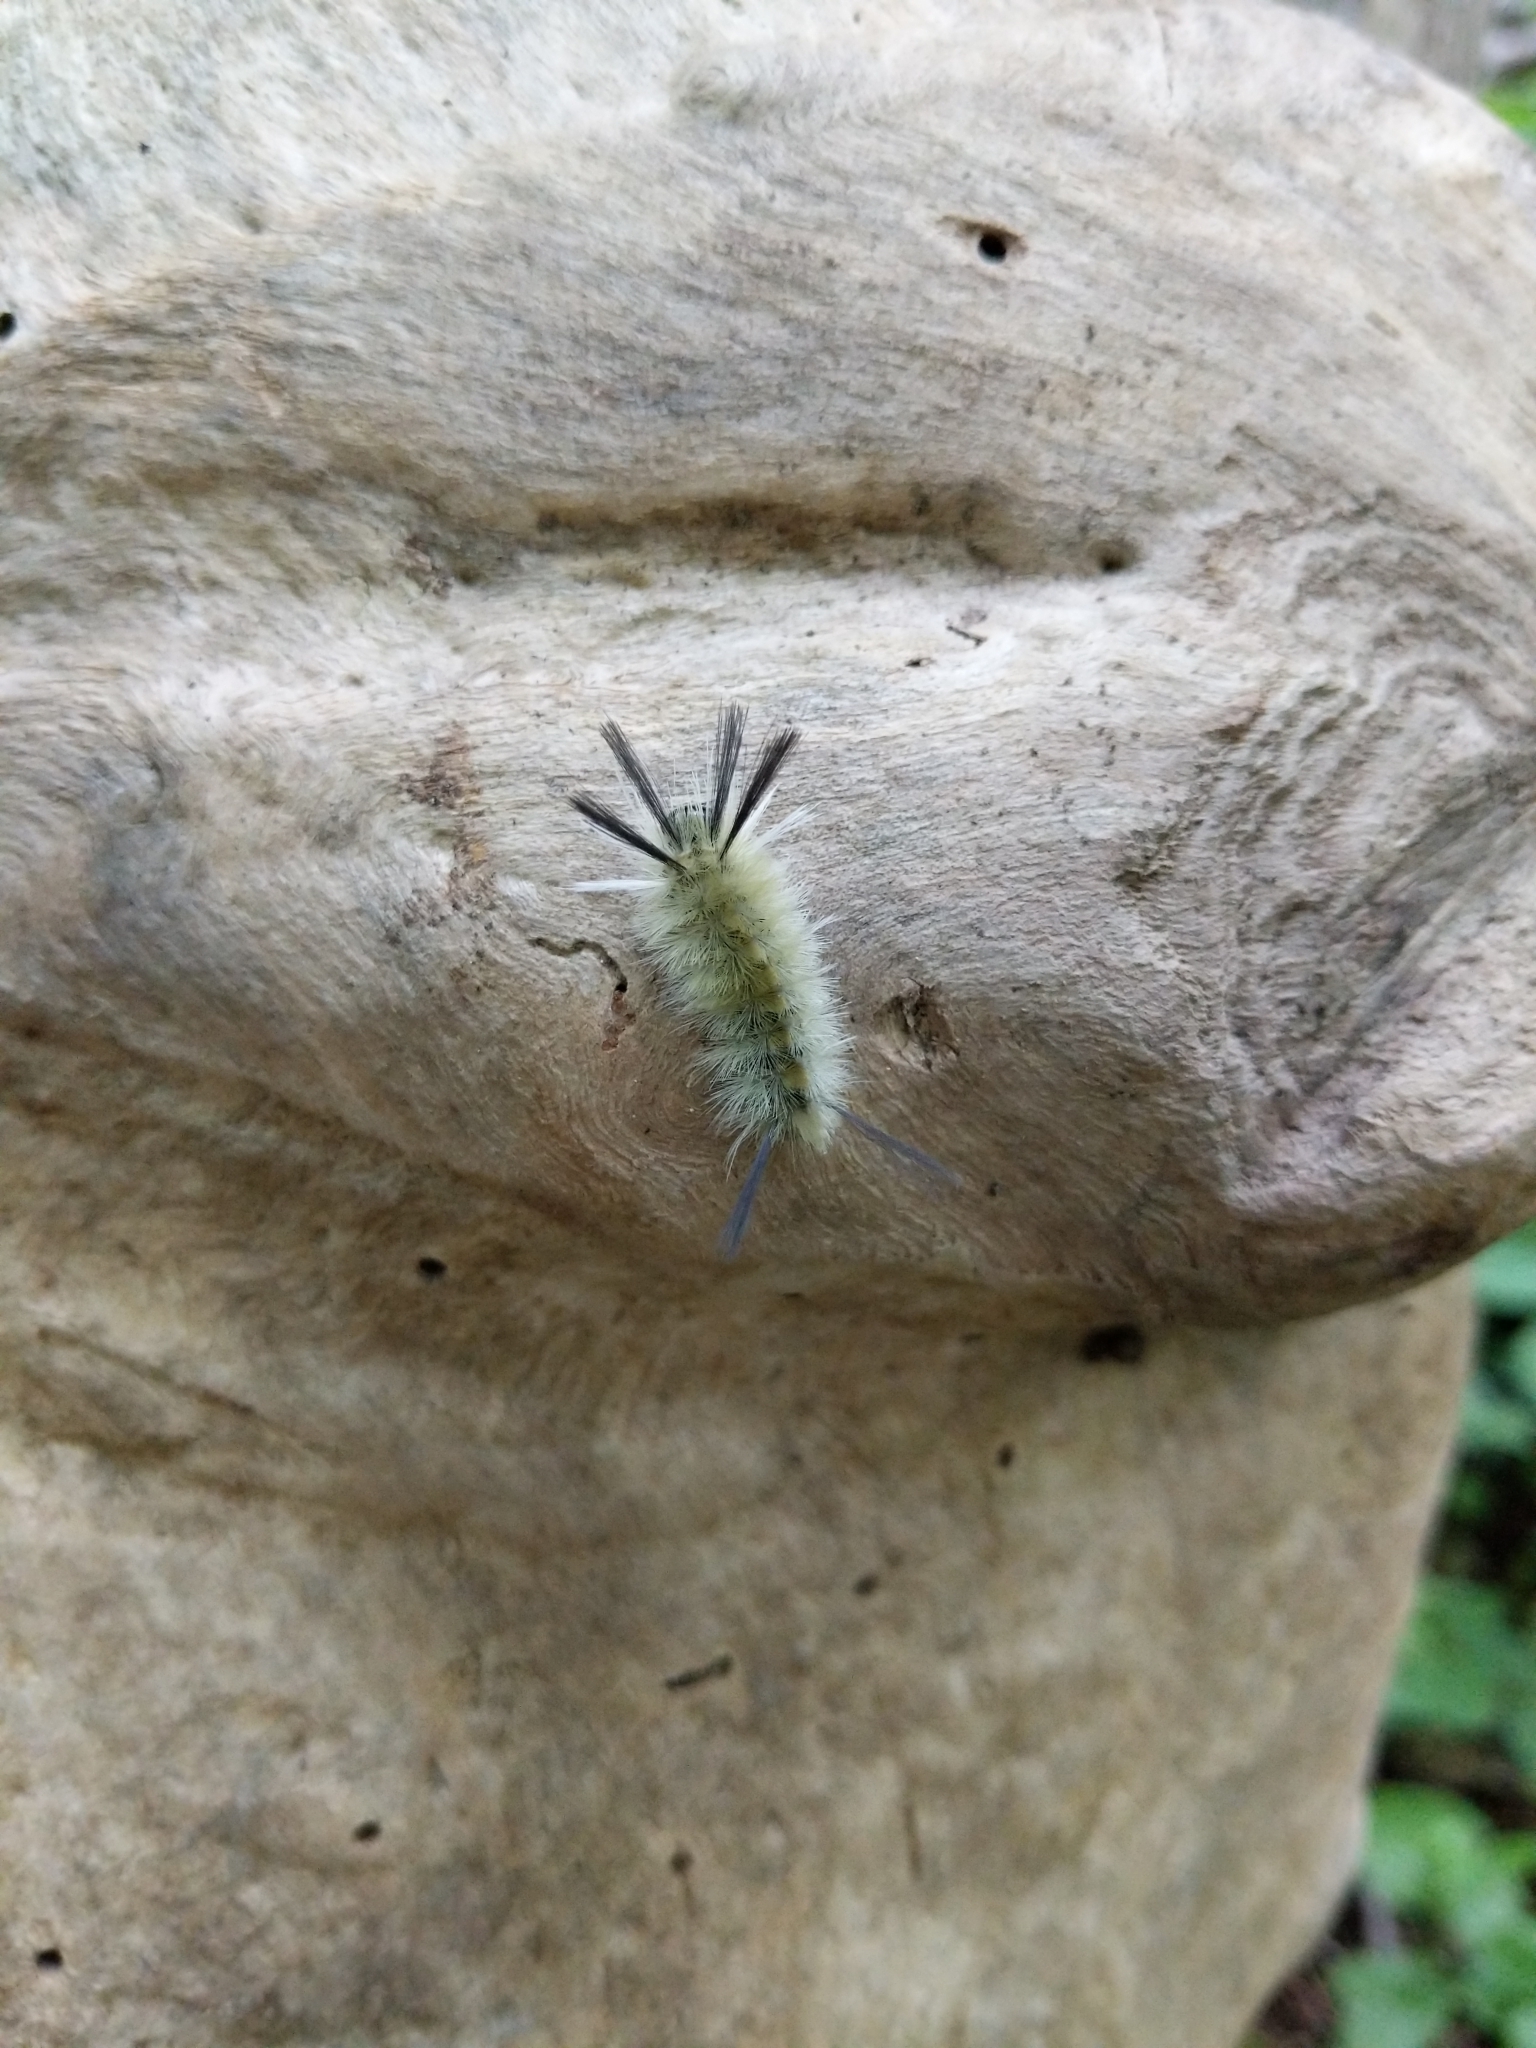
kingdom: Animalia
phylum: Arthropoda
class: Insecta
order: Lepidoptera
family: Erebidae
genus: Halysidota
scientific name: Halysidota tessellaris
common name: Banded tussock moth
